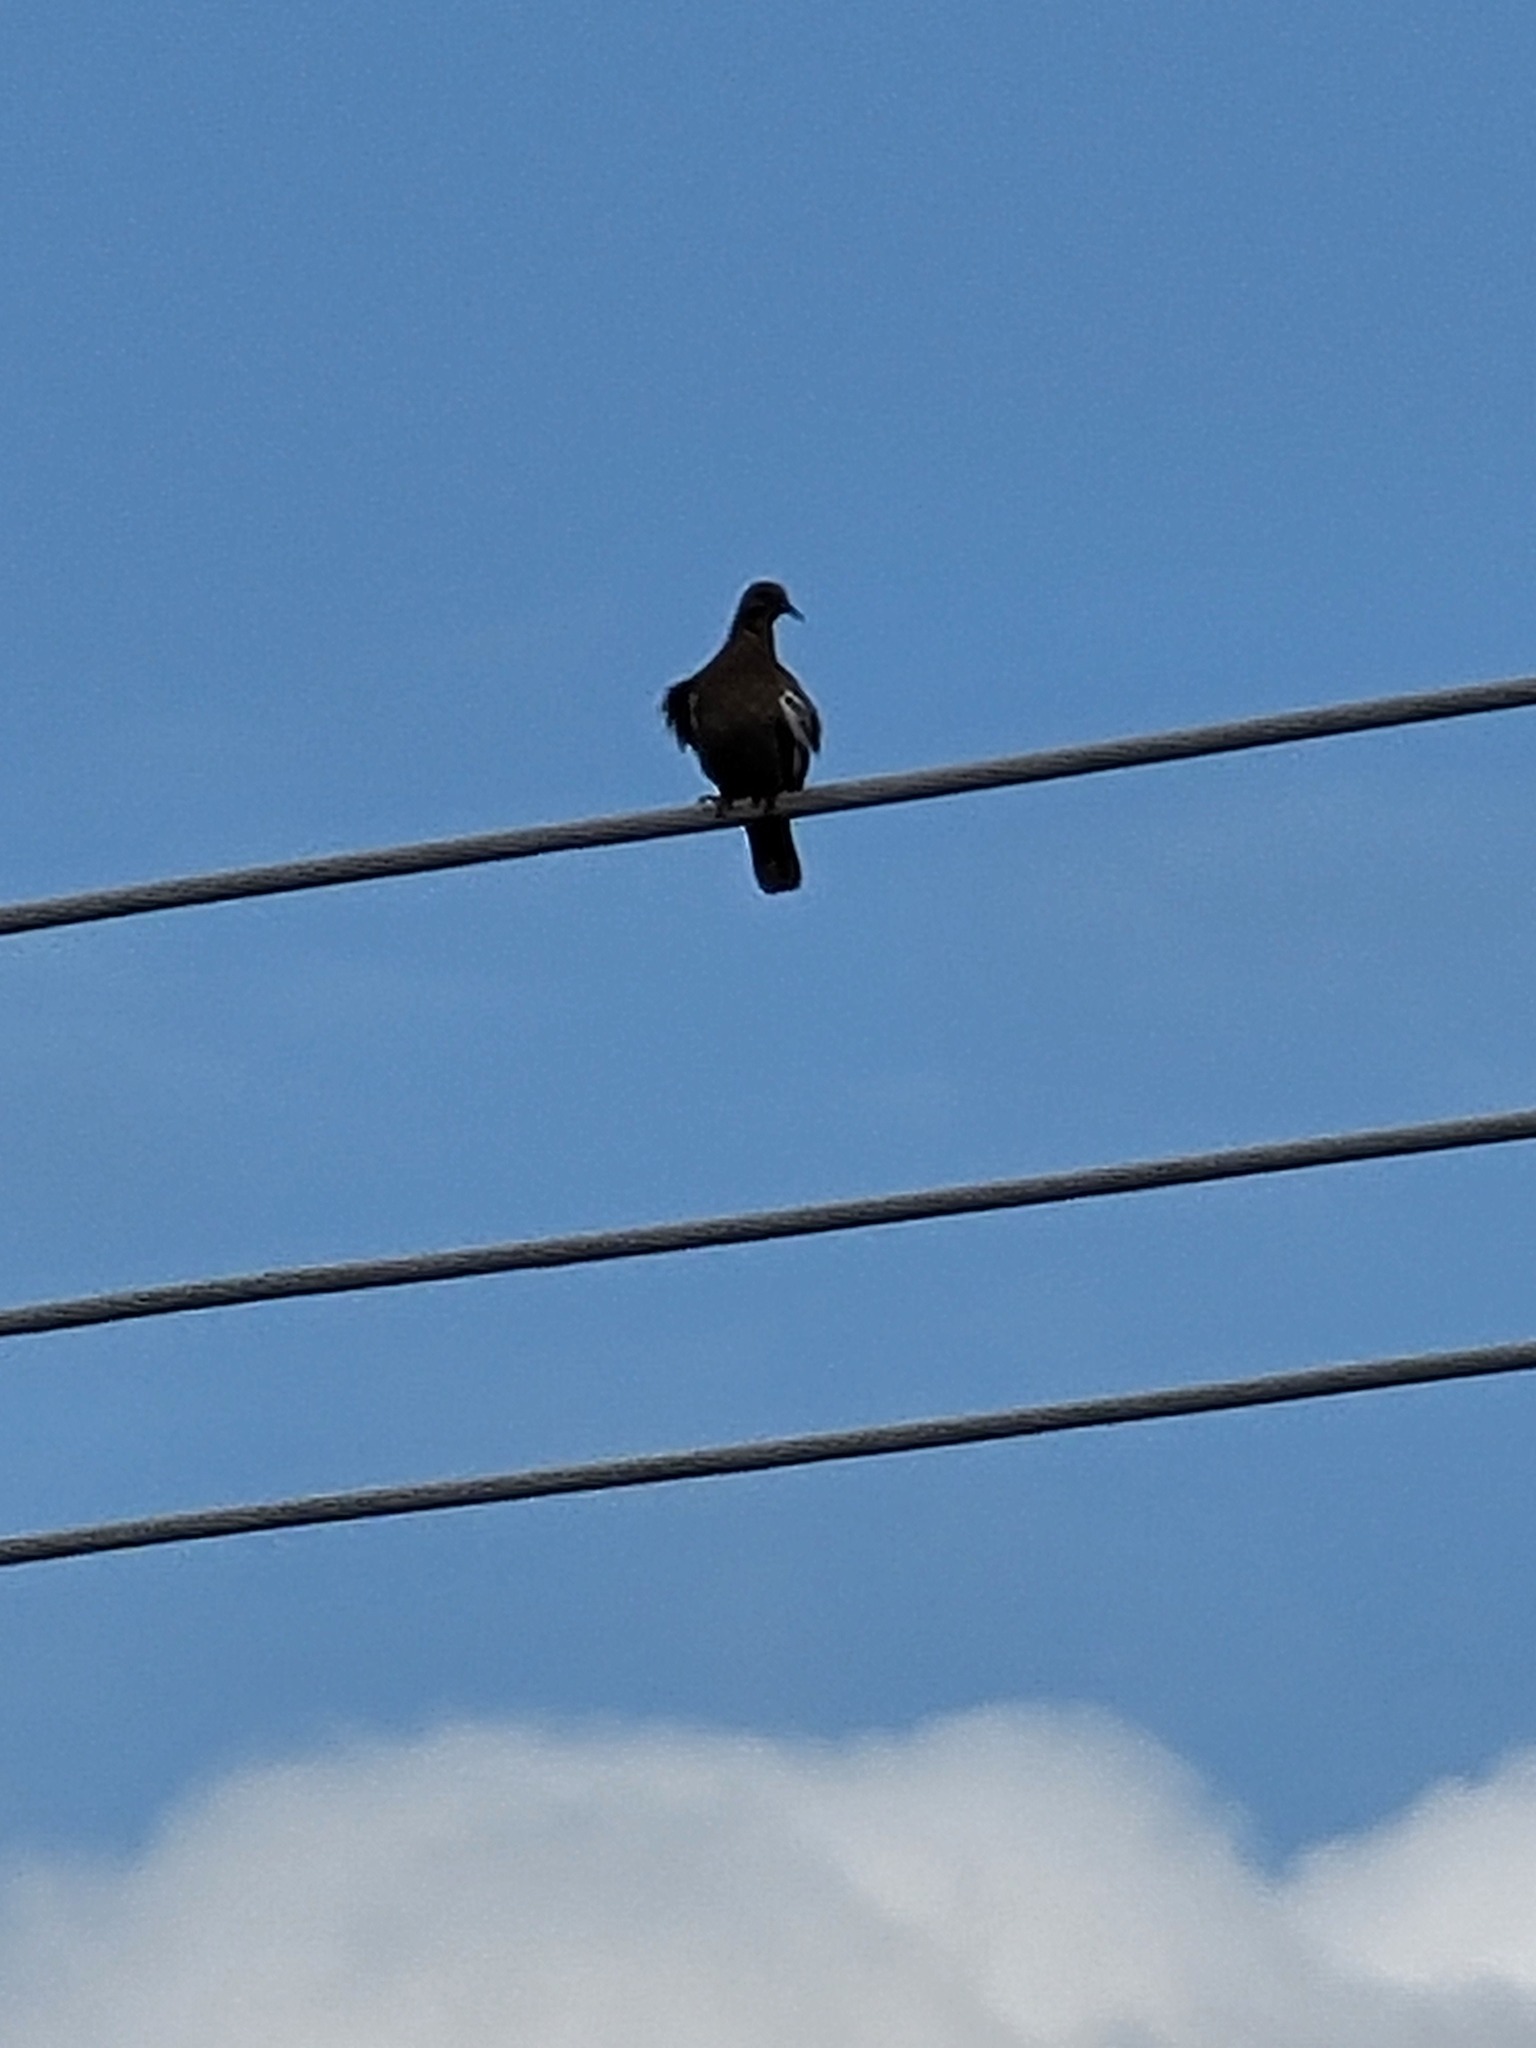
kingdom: Animalia
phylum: Chordata
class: Aves
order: Columbiformes
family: Columbidae
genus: Zenaida
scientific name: Zenaida asiatica
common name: White-winged dove
